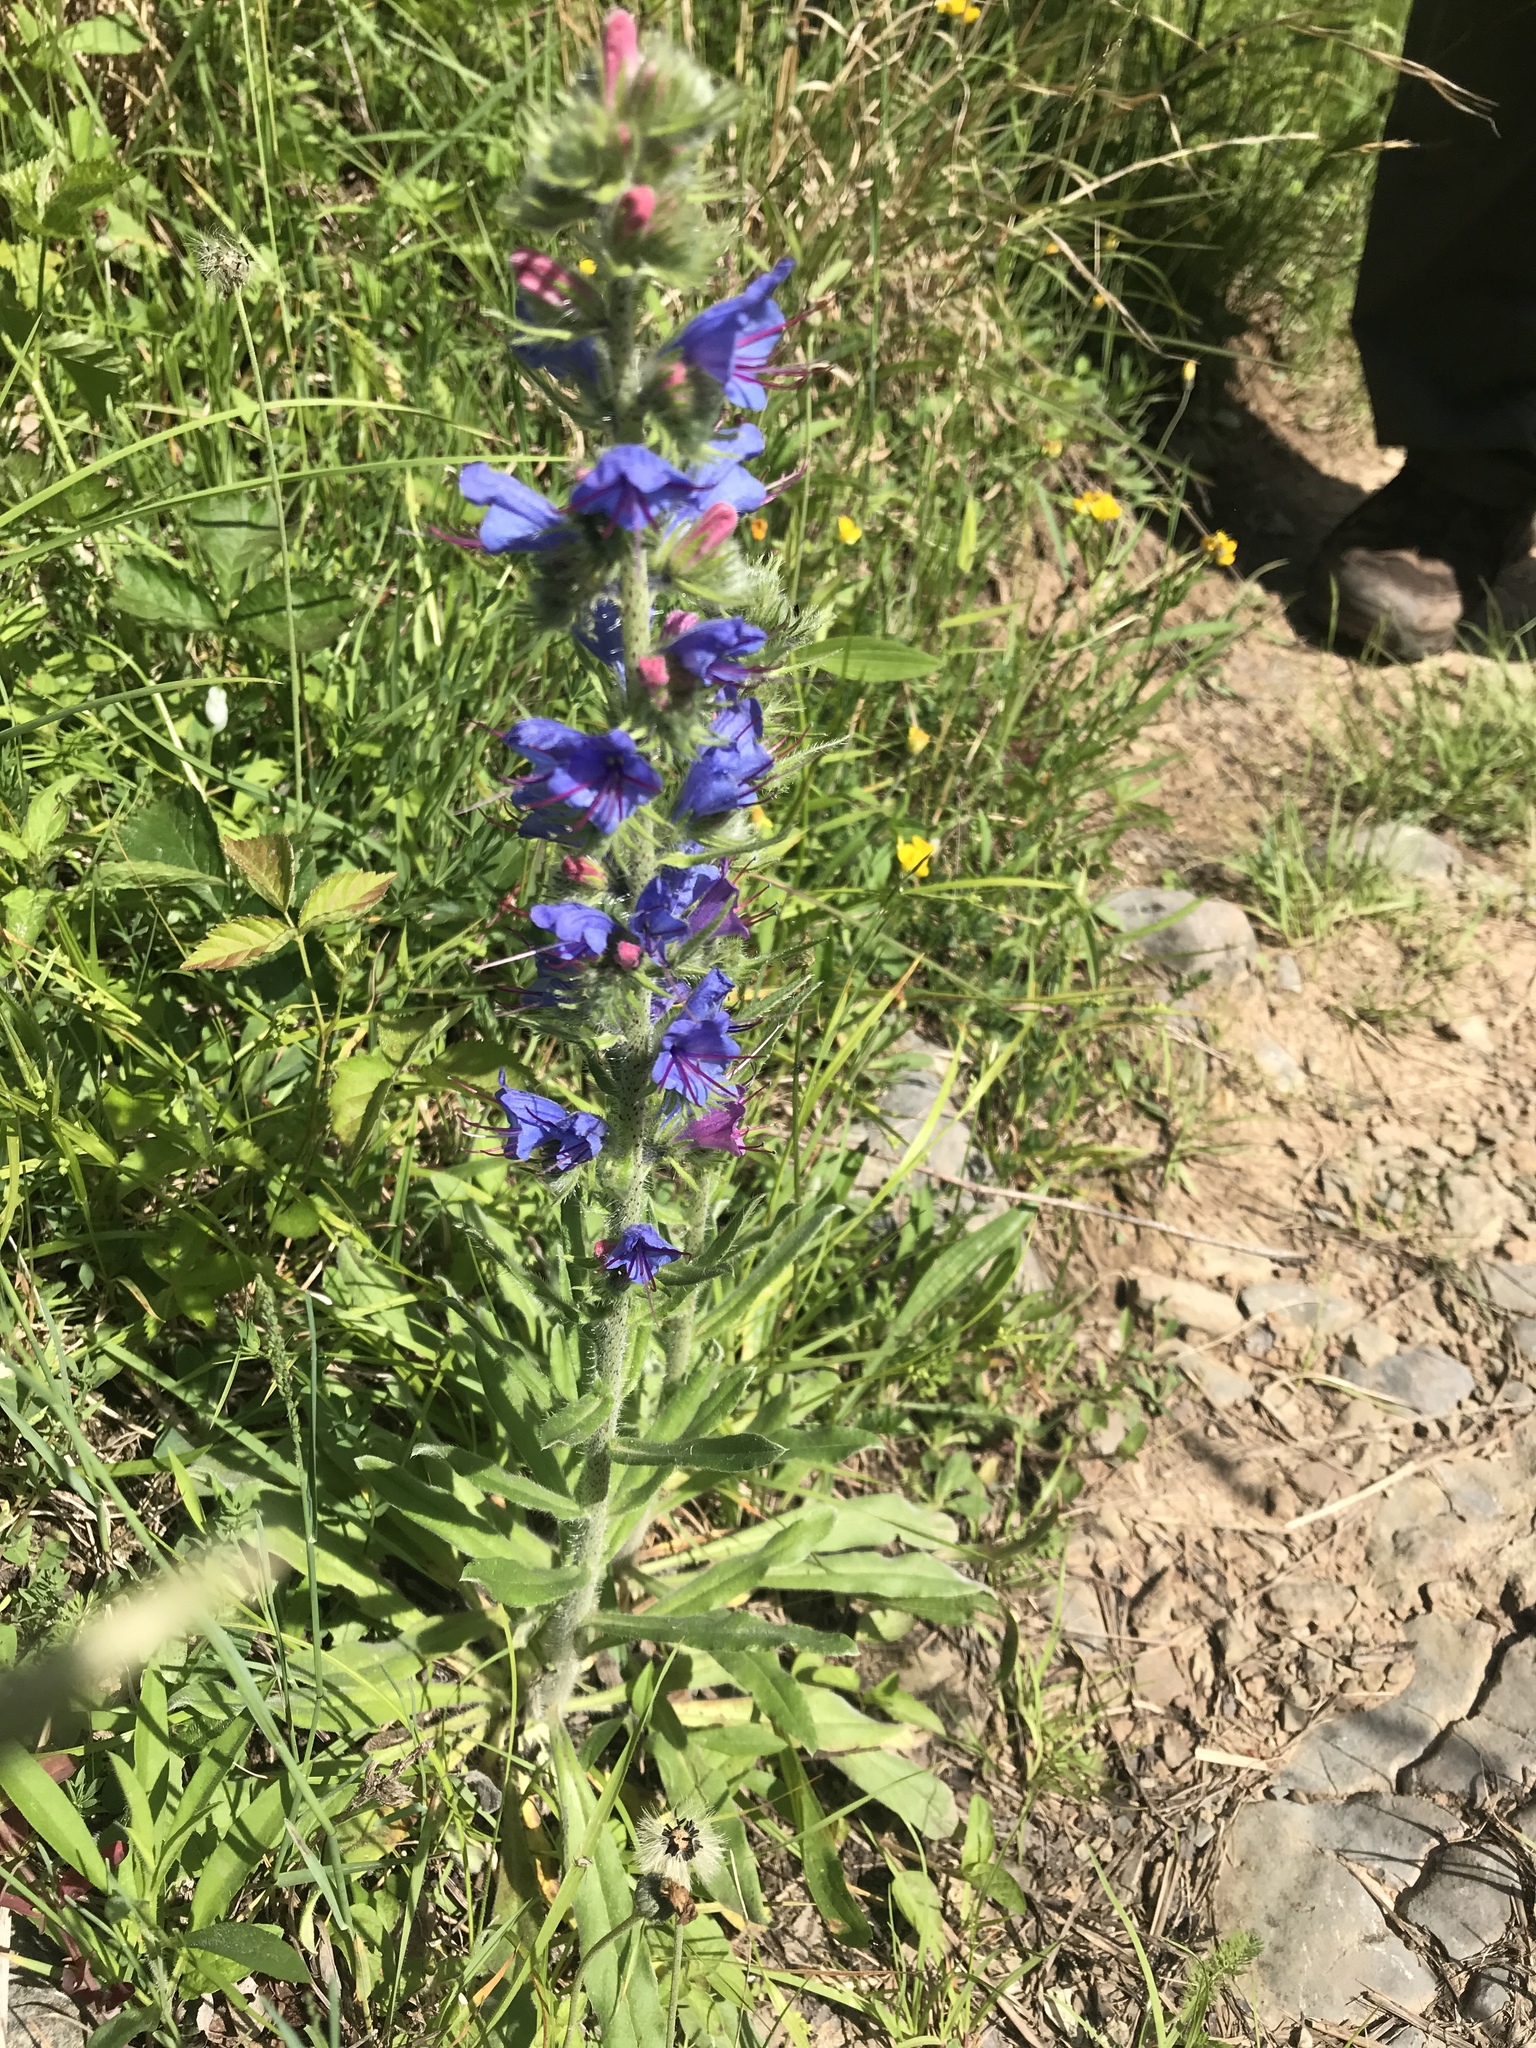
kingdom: Plantae
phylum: Tracheophyta
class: Magnoliopsida
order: Boraginales
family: Boraginaceae
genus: Echium
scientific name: Echium vulgare
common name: Common viper's bugloss
